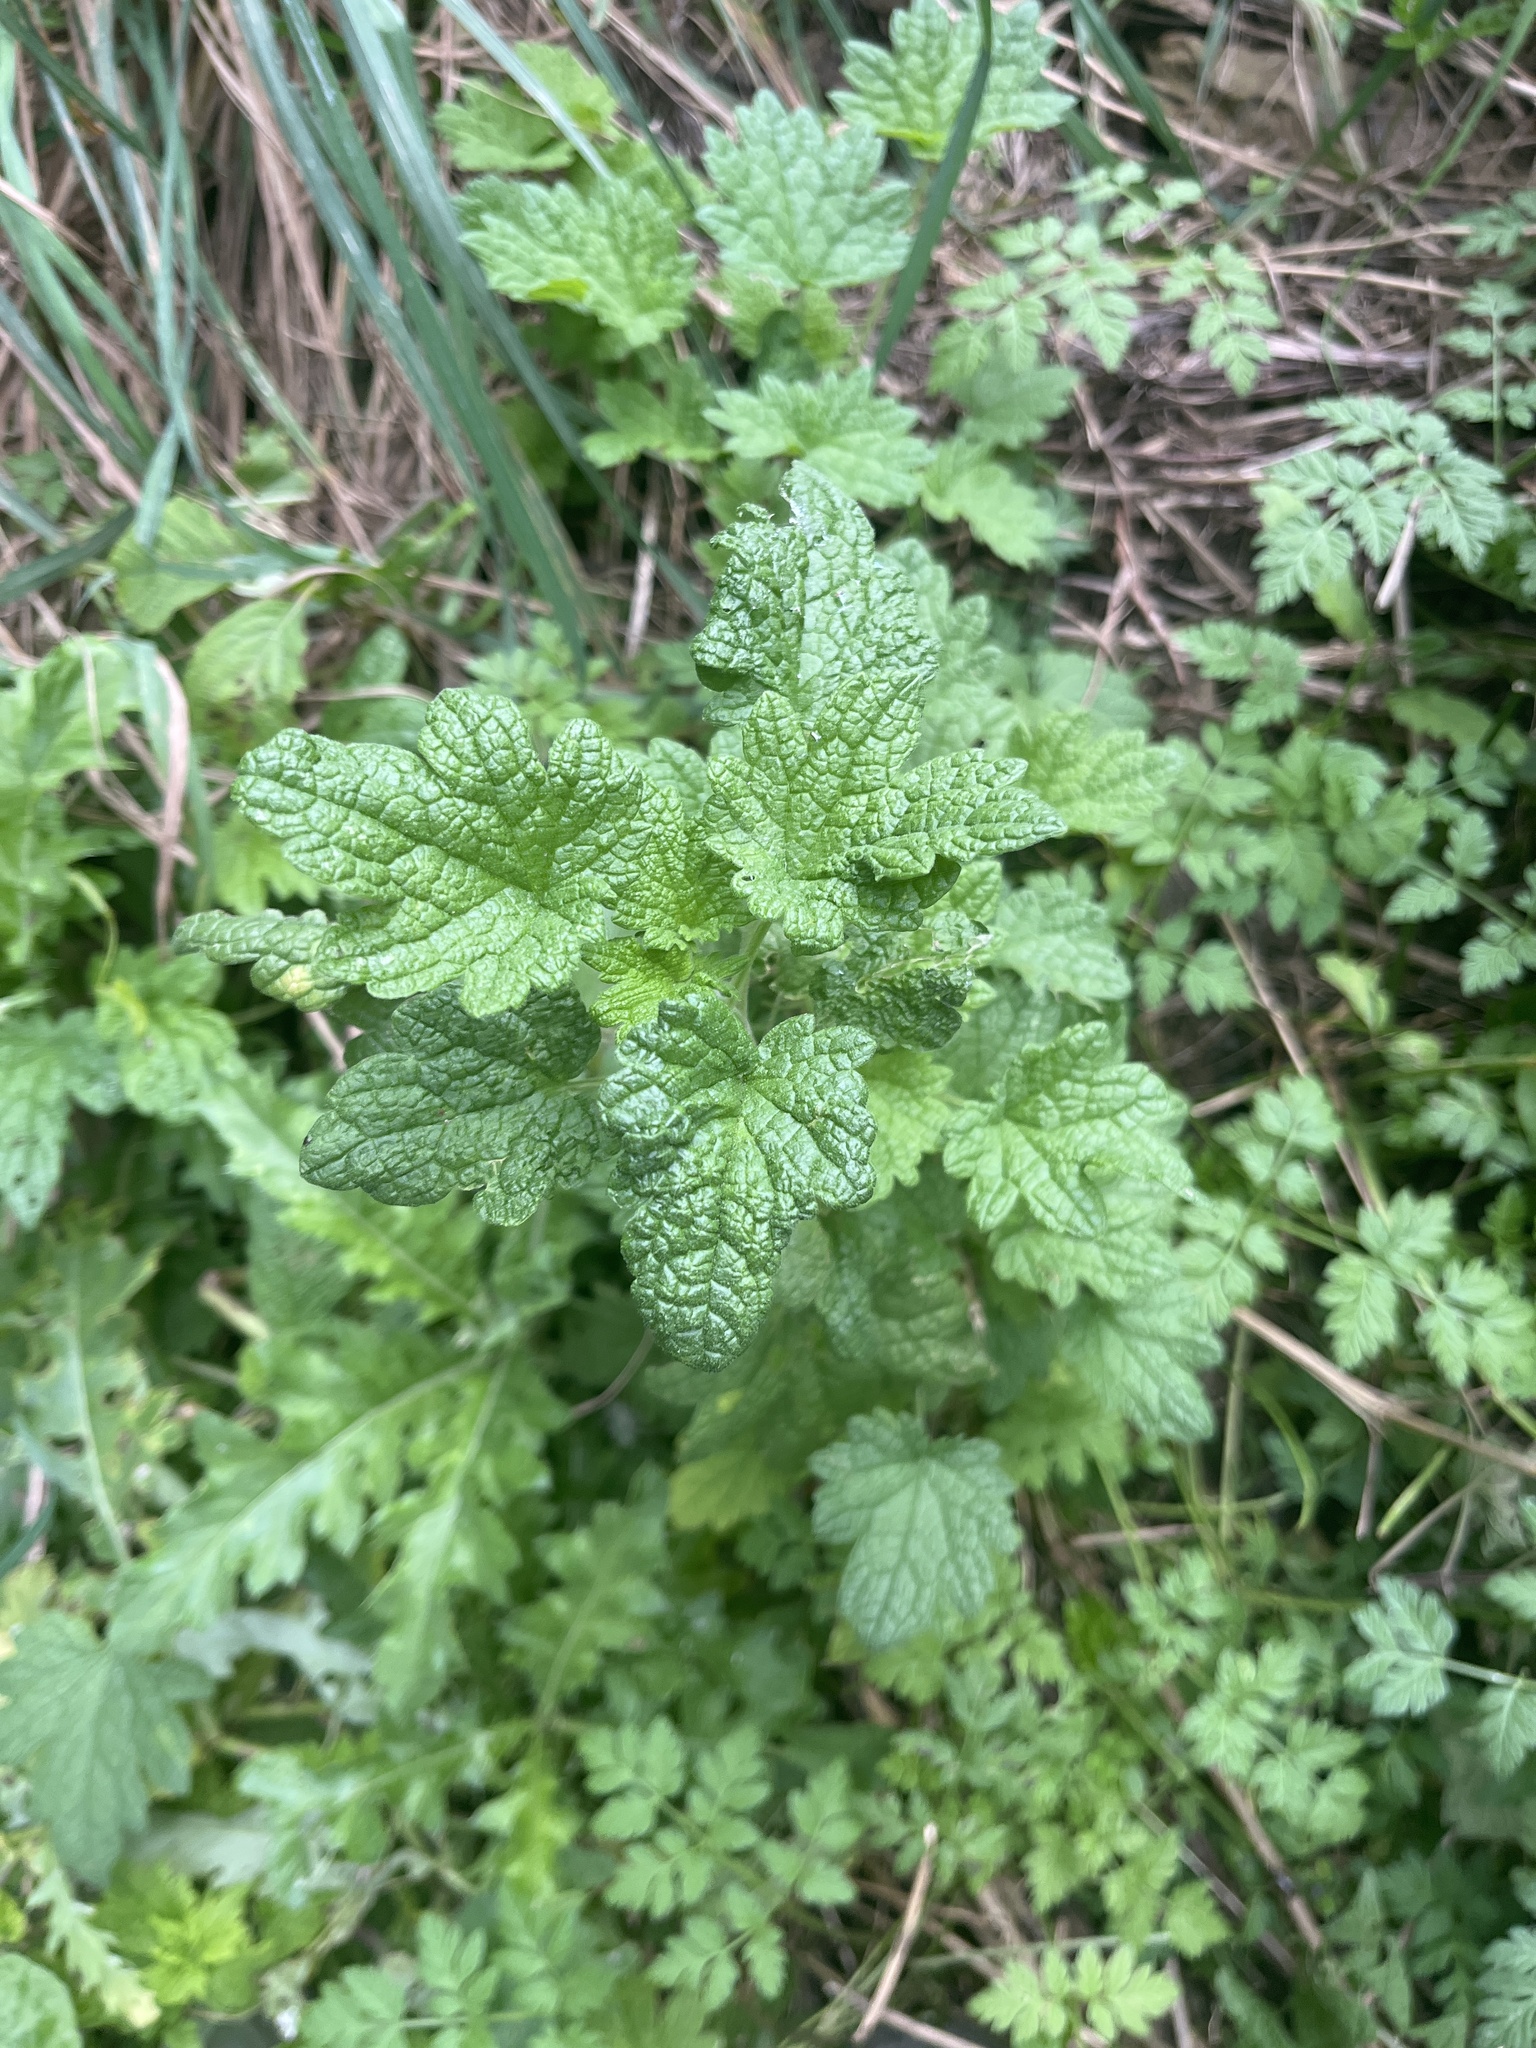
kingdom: Plantae
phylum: Tracheophyta
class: Magnoliopsida
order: Lamiales
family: Lamiaceae
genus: Leonurus
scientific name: Leonurus cardiaca
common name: Motherwort
